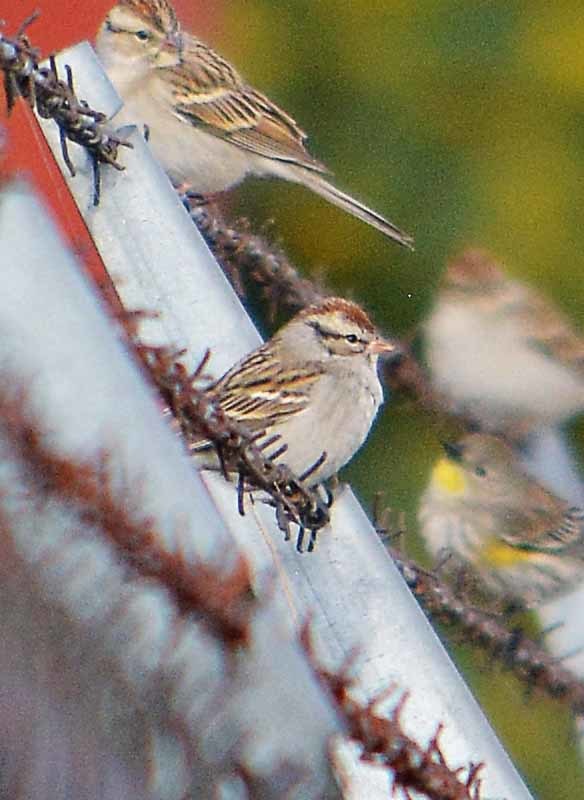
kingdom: Animalia
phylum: Chordata
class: Aves
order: Passeriformes
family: Passerellidae
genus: Spizella
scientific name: Spizella passerina
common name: Chipping sparrow
